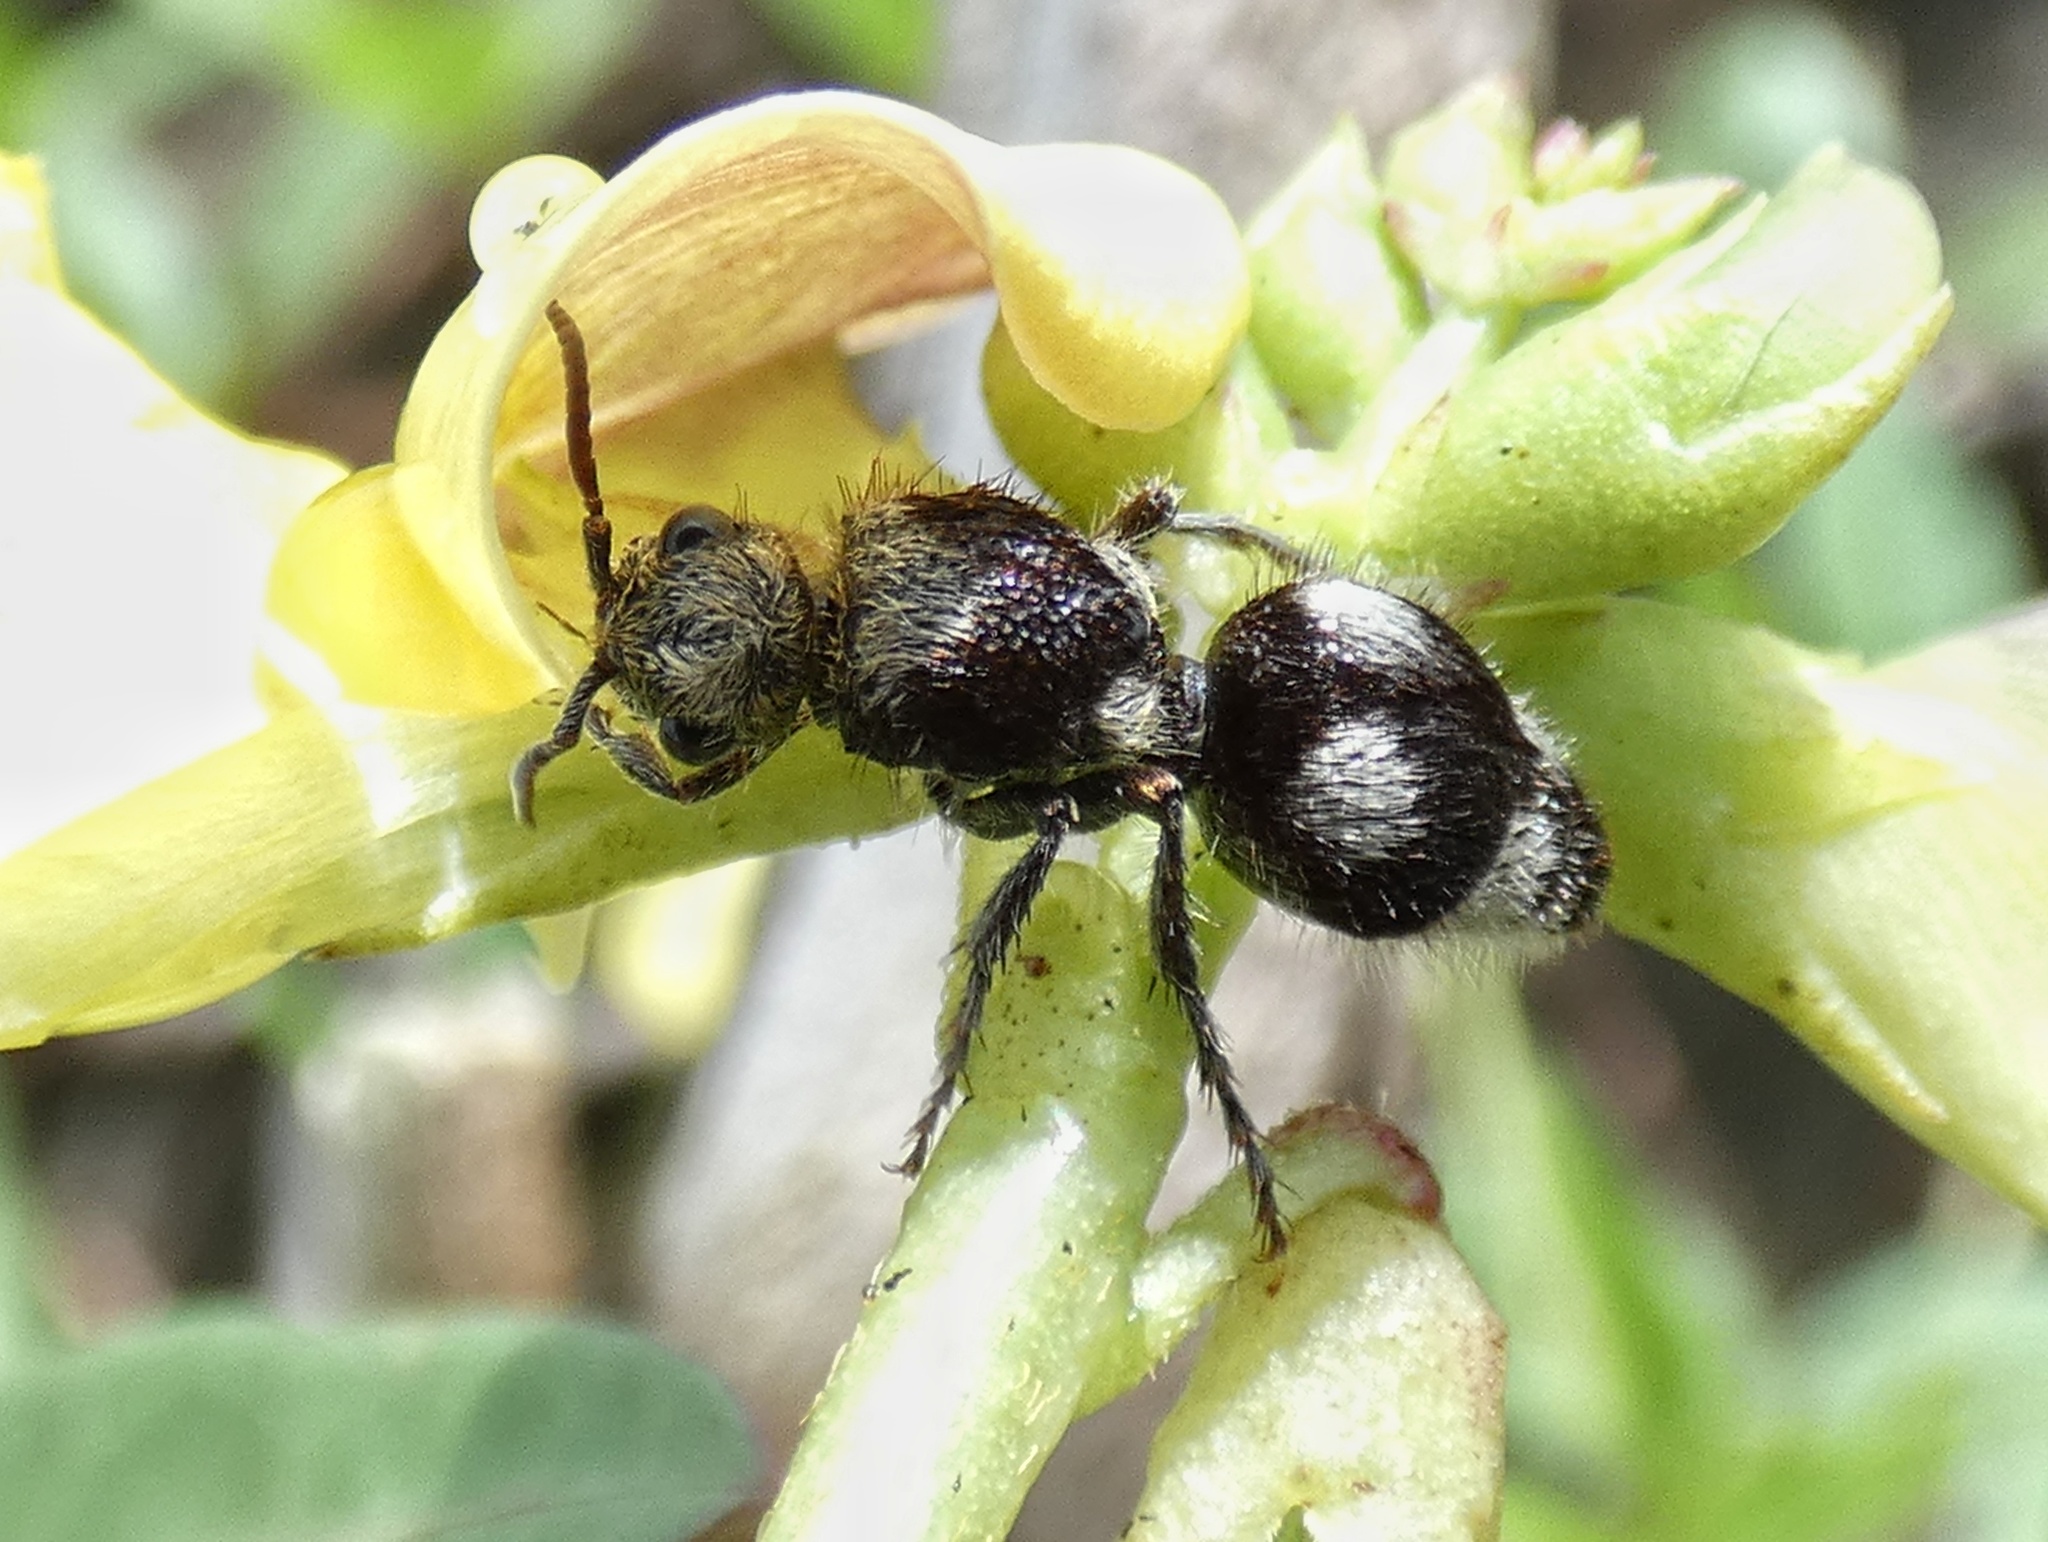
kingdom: Animalia
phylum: Arthropoda
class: Insecta
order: Hymenoptera
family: Mutillidae
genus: Dasymutilla
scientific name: Dasymutilla araneoides
